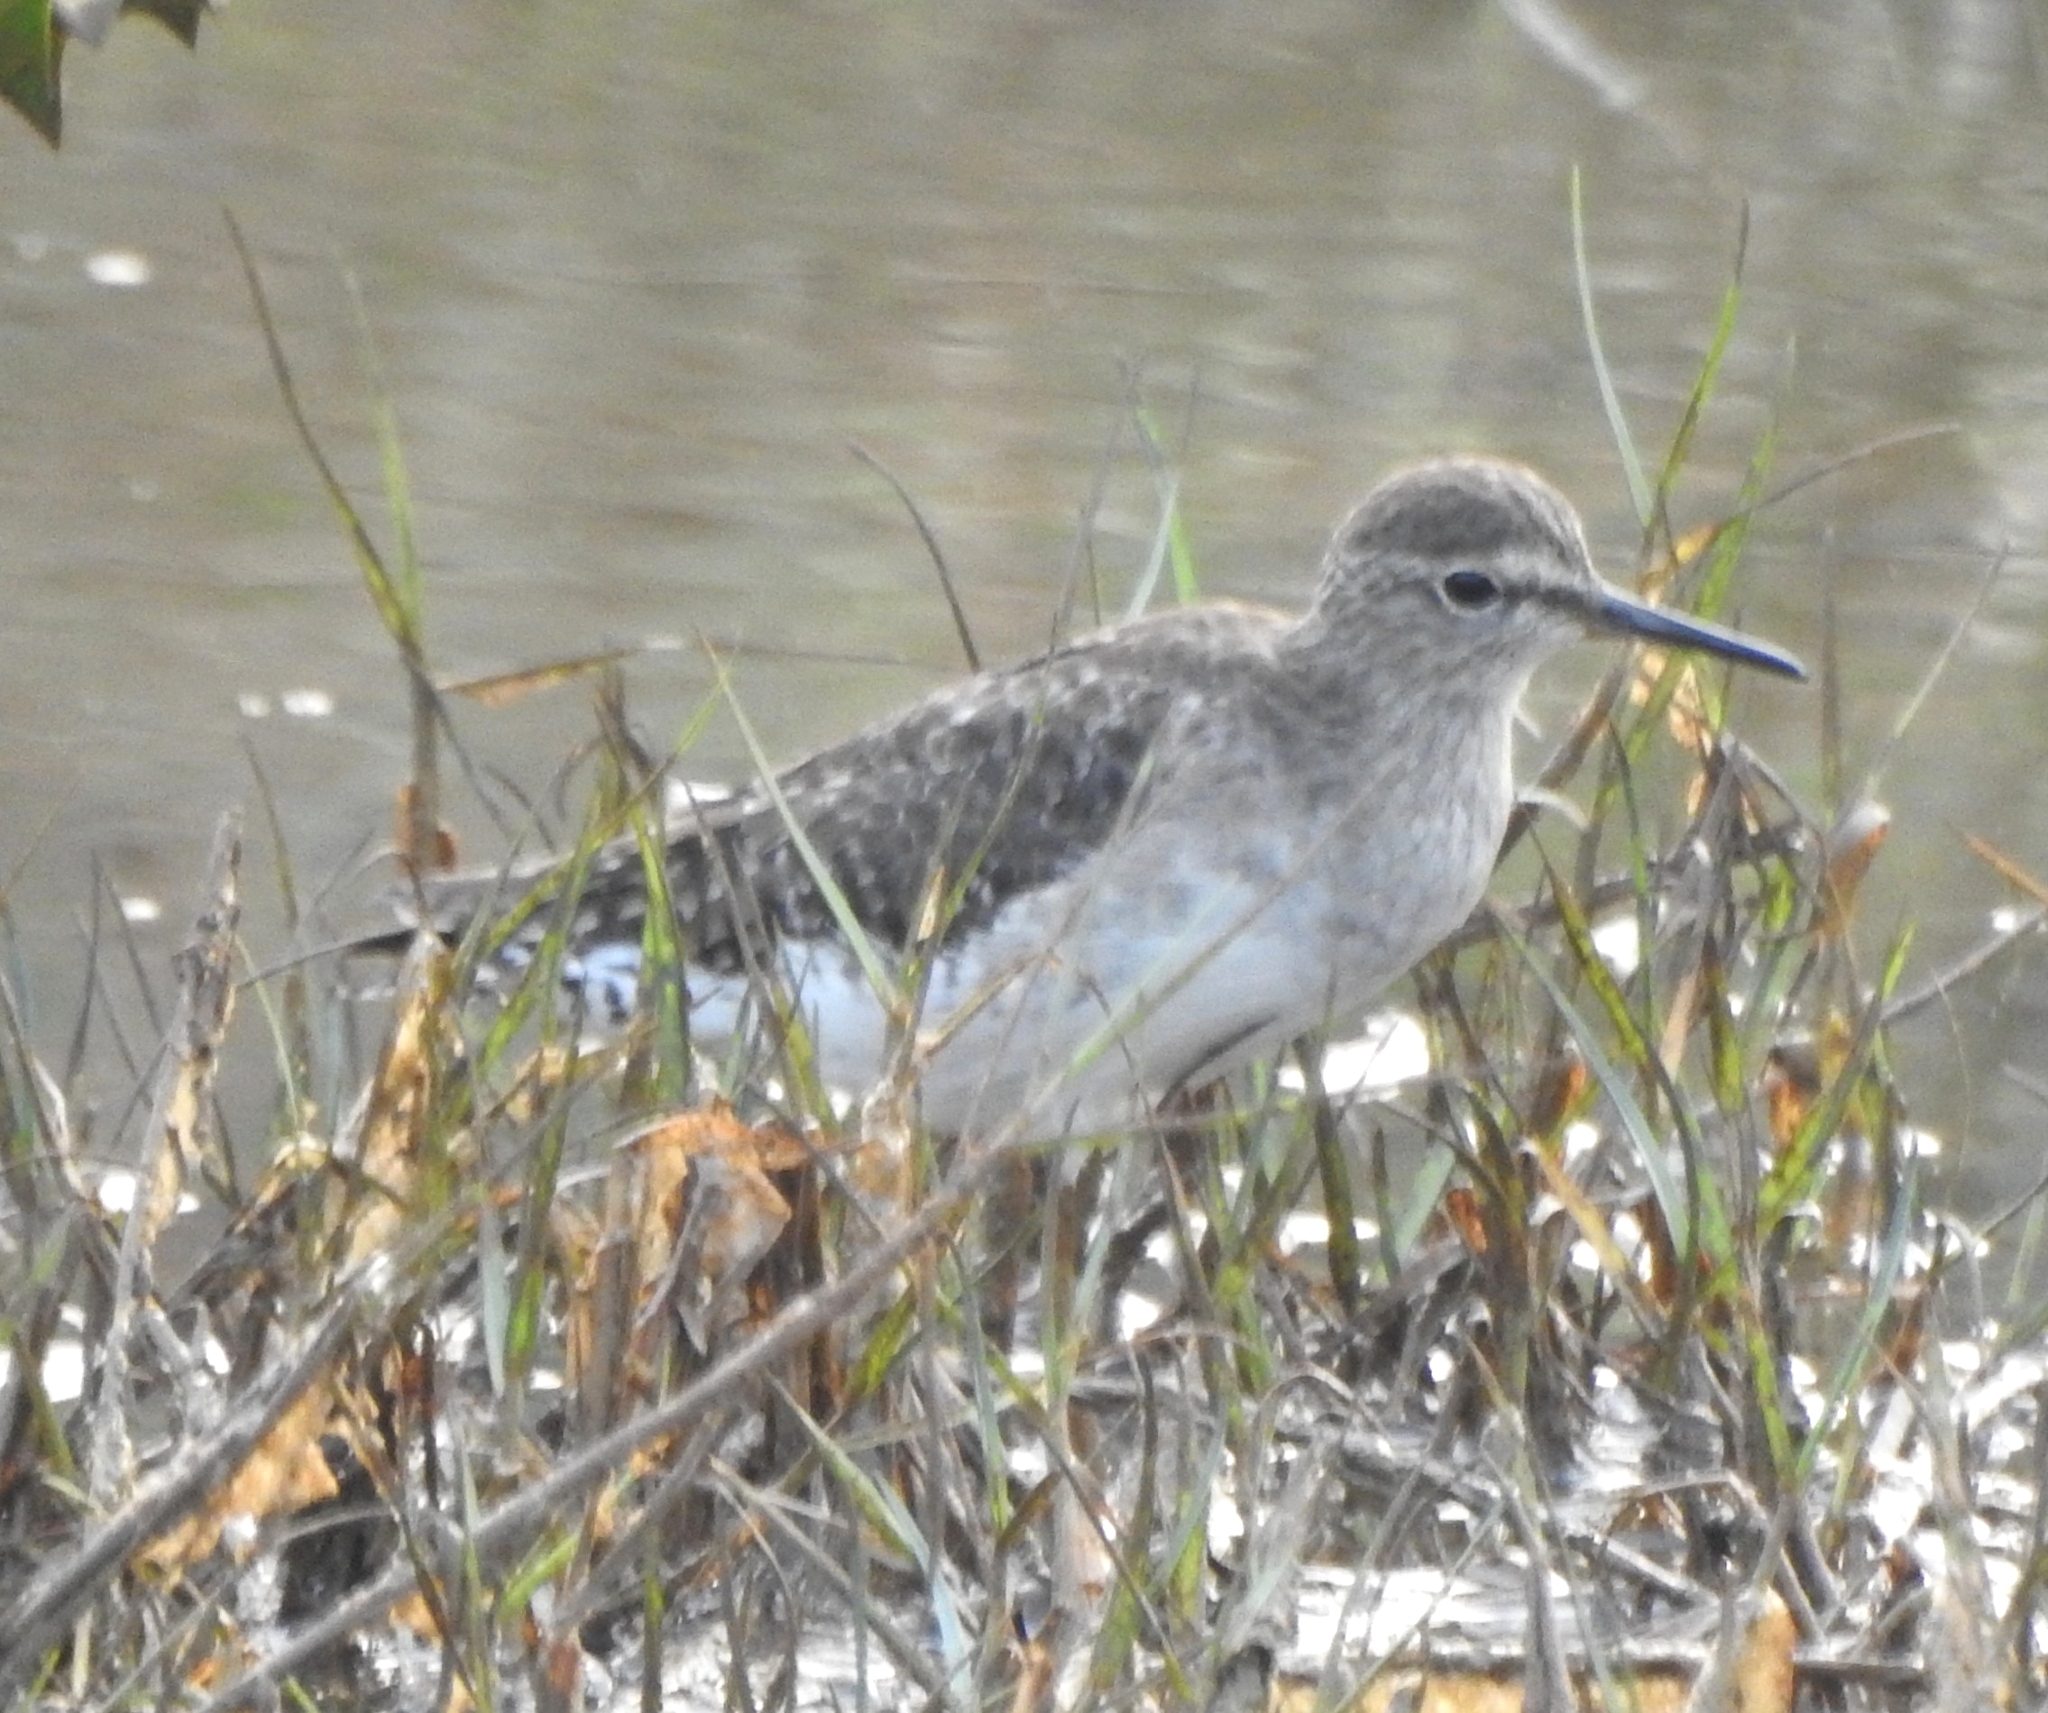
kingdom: Animalia
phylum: Chordata
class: Aves
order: Charadriiformes
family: Scolopacidae
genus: Tringa
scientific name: Tringa glareola
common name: Wood sandpiper
